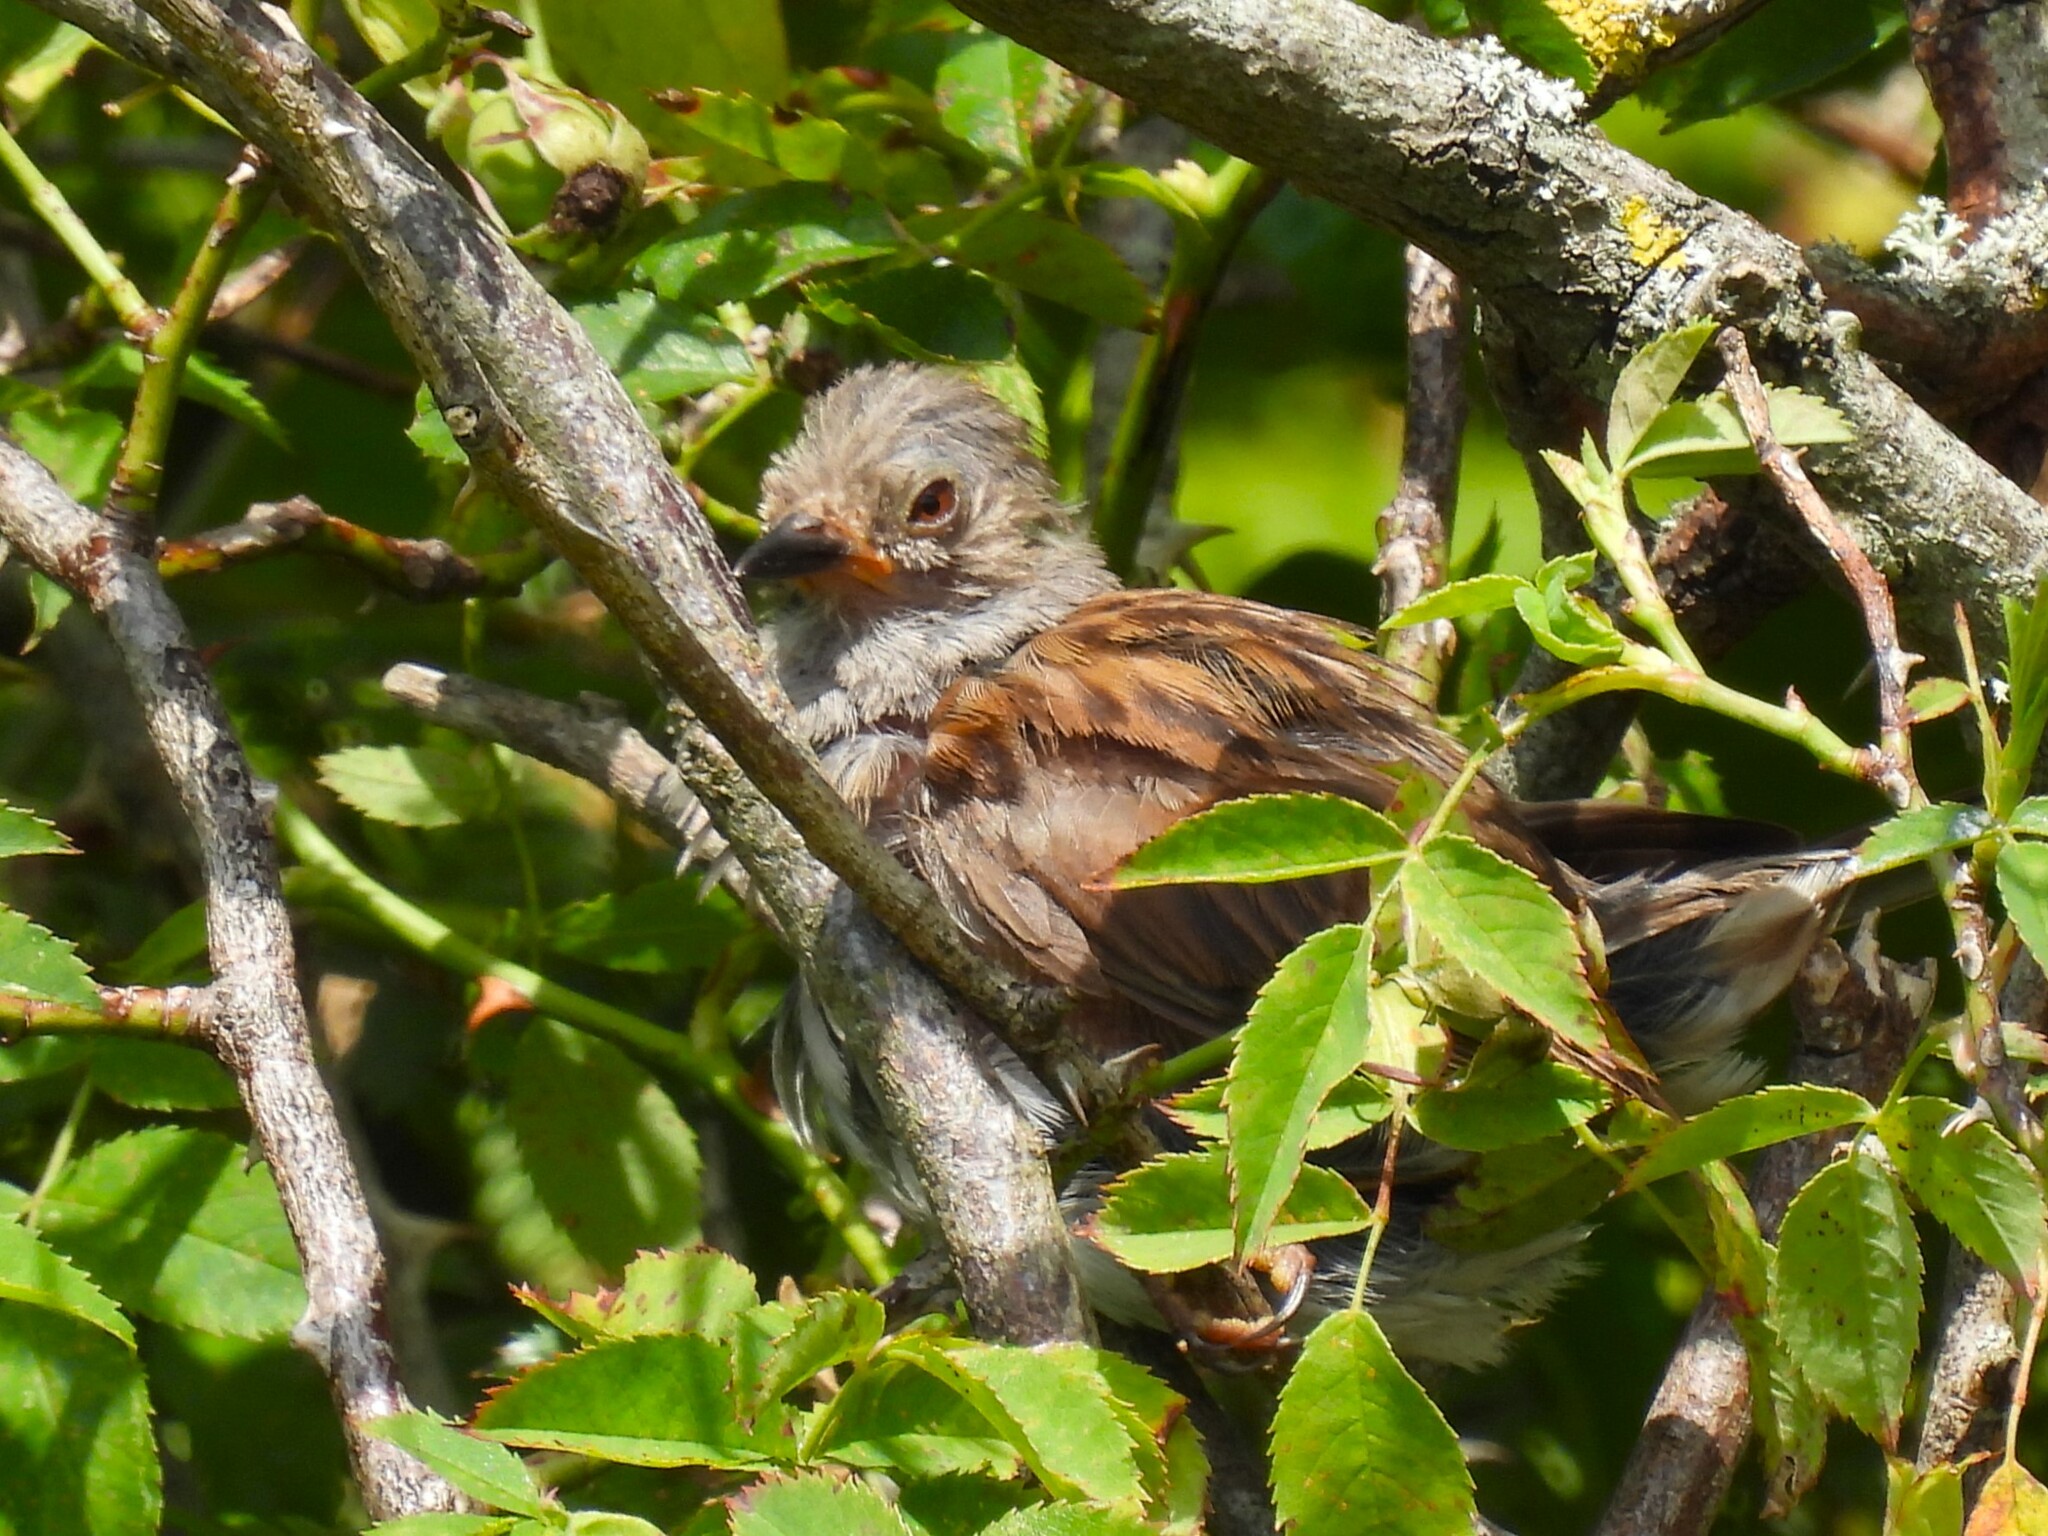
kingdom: Animalia
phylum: Chordata
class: Aves
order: Passeriformes
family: Prunellidae
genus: Prunella
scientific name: Prunella modularis
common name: Dunnock
